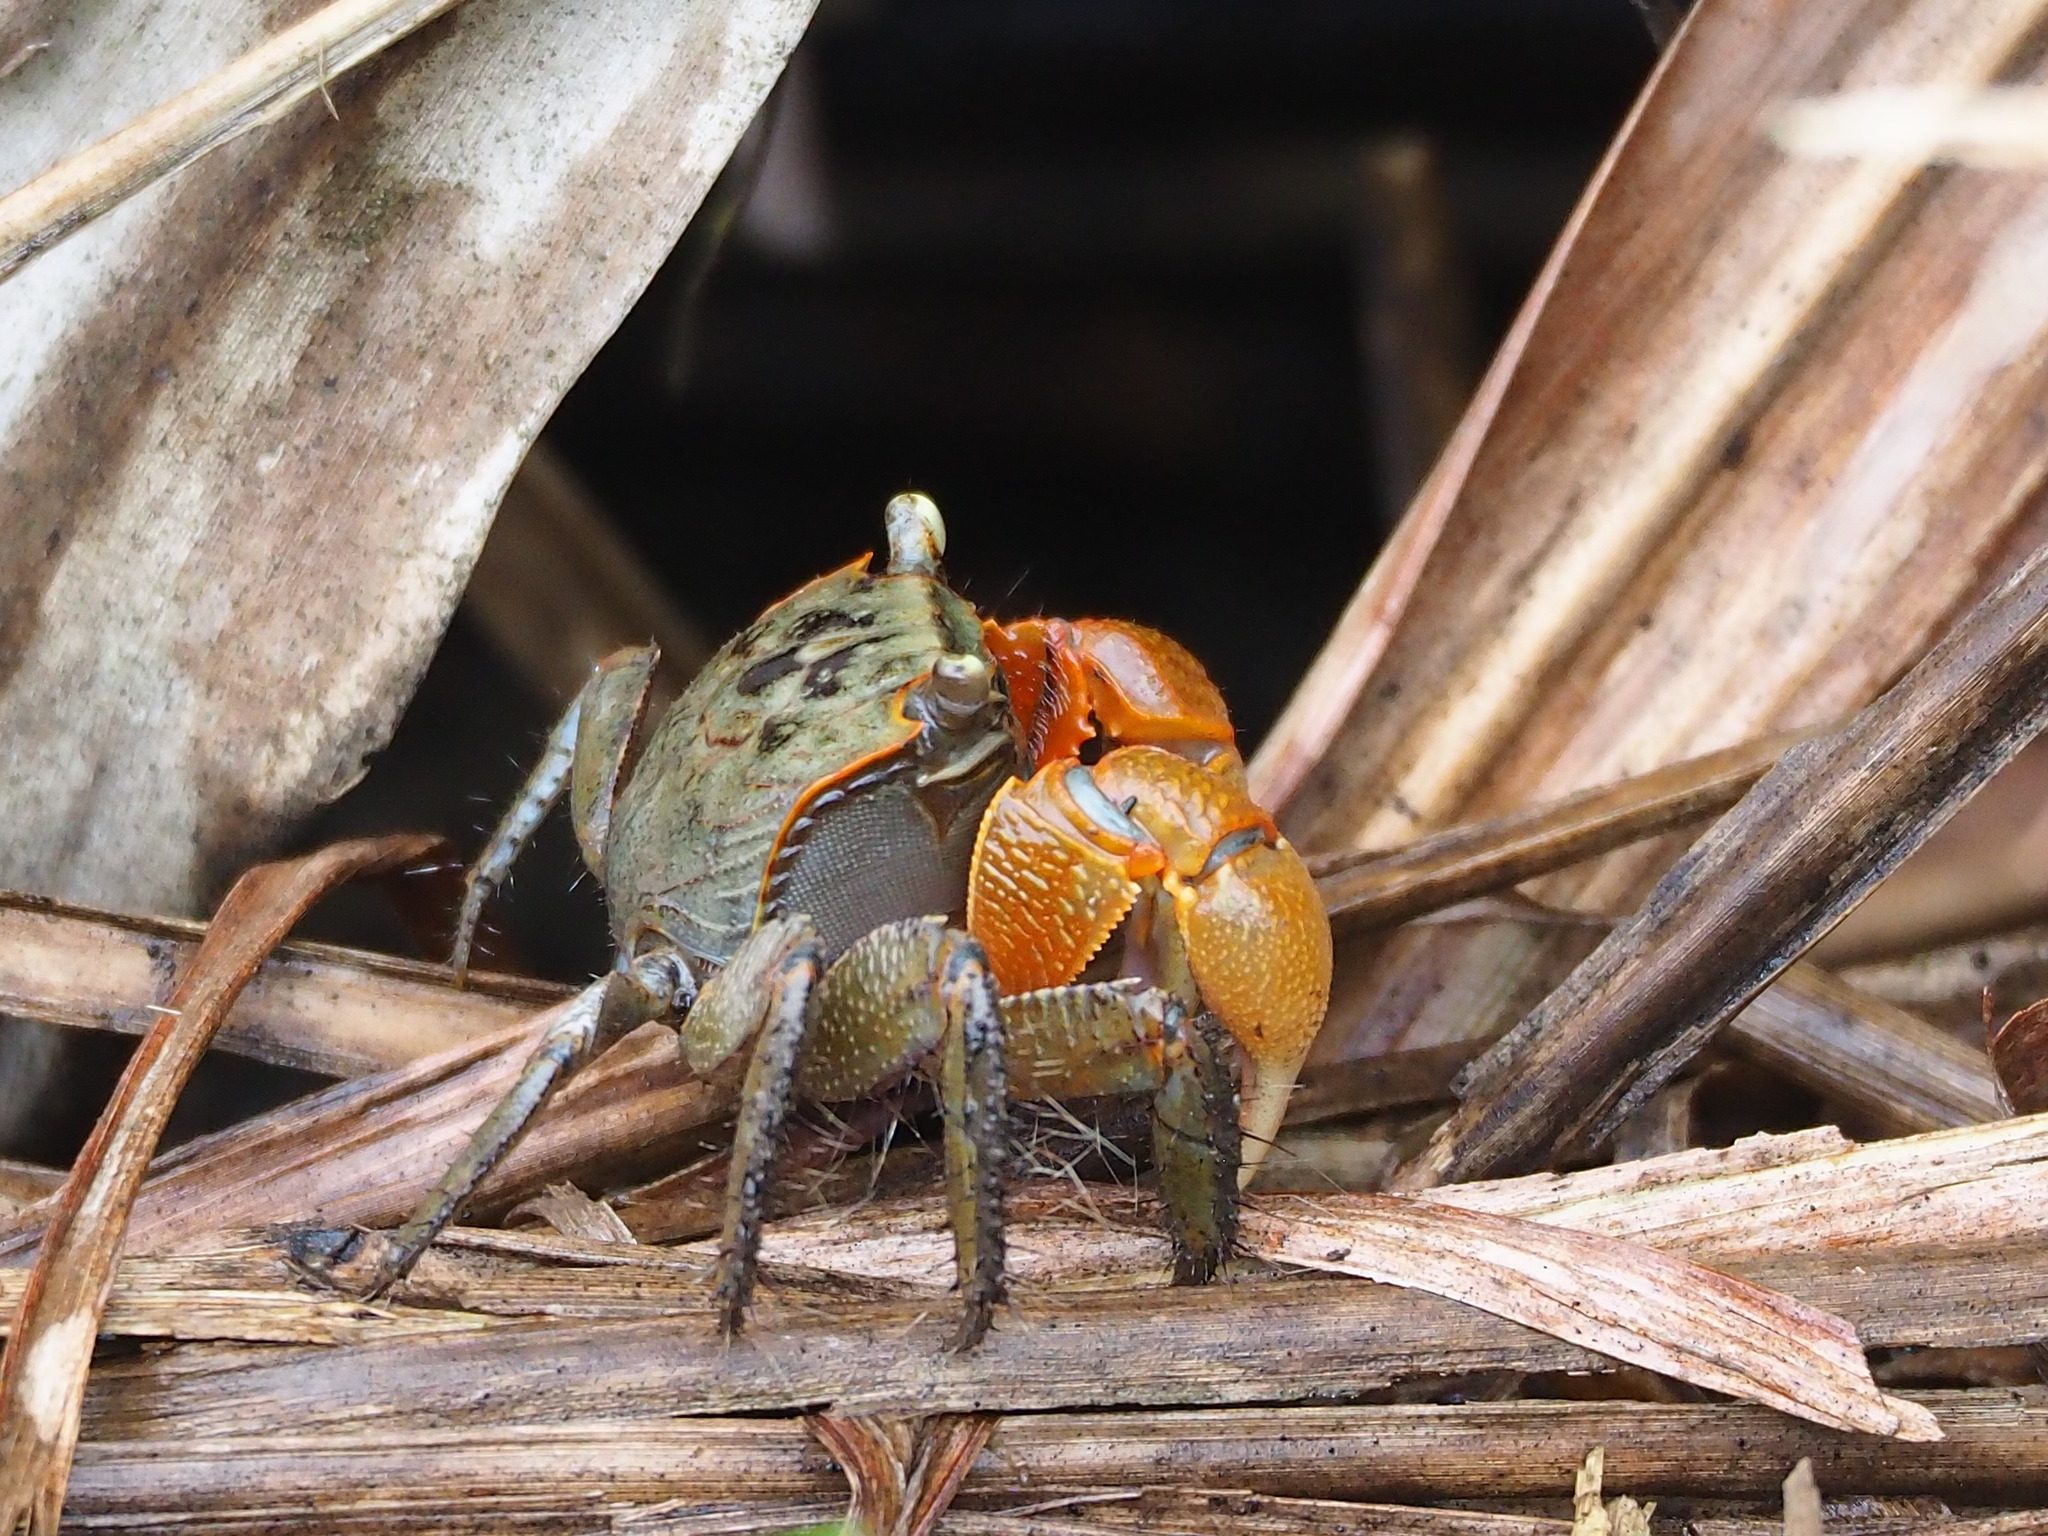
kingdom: Animalia
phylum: Arthropoda
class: Malacostraca
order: Decapoda
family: Sesarmidae
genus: Orisarma
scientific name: Orisarma dehaani
